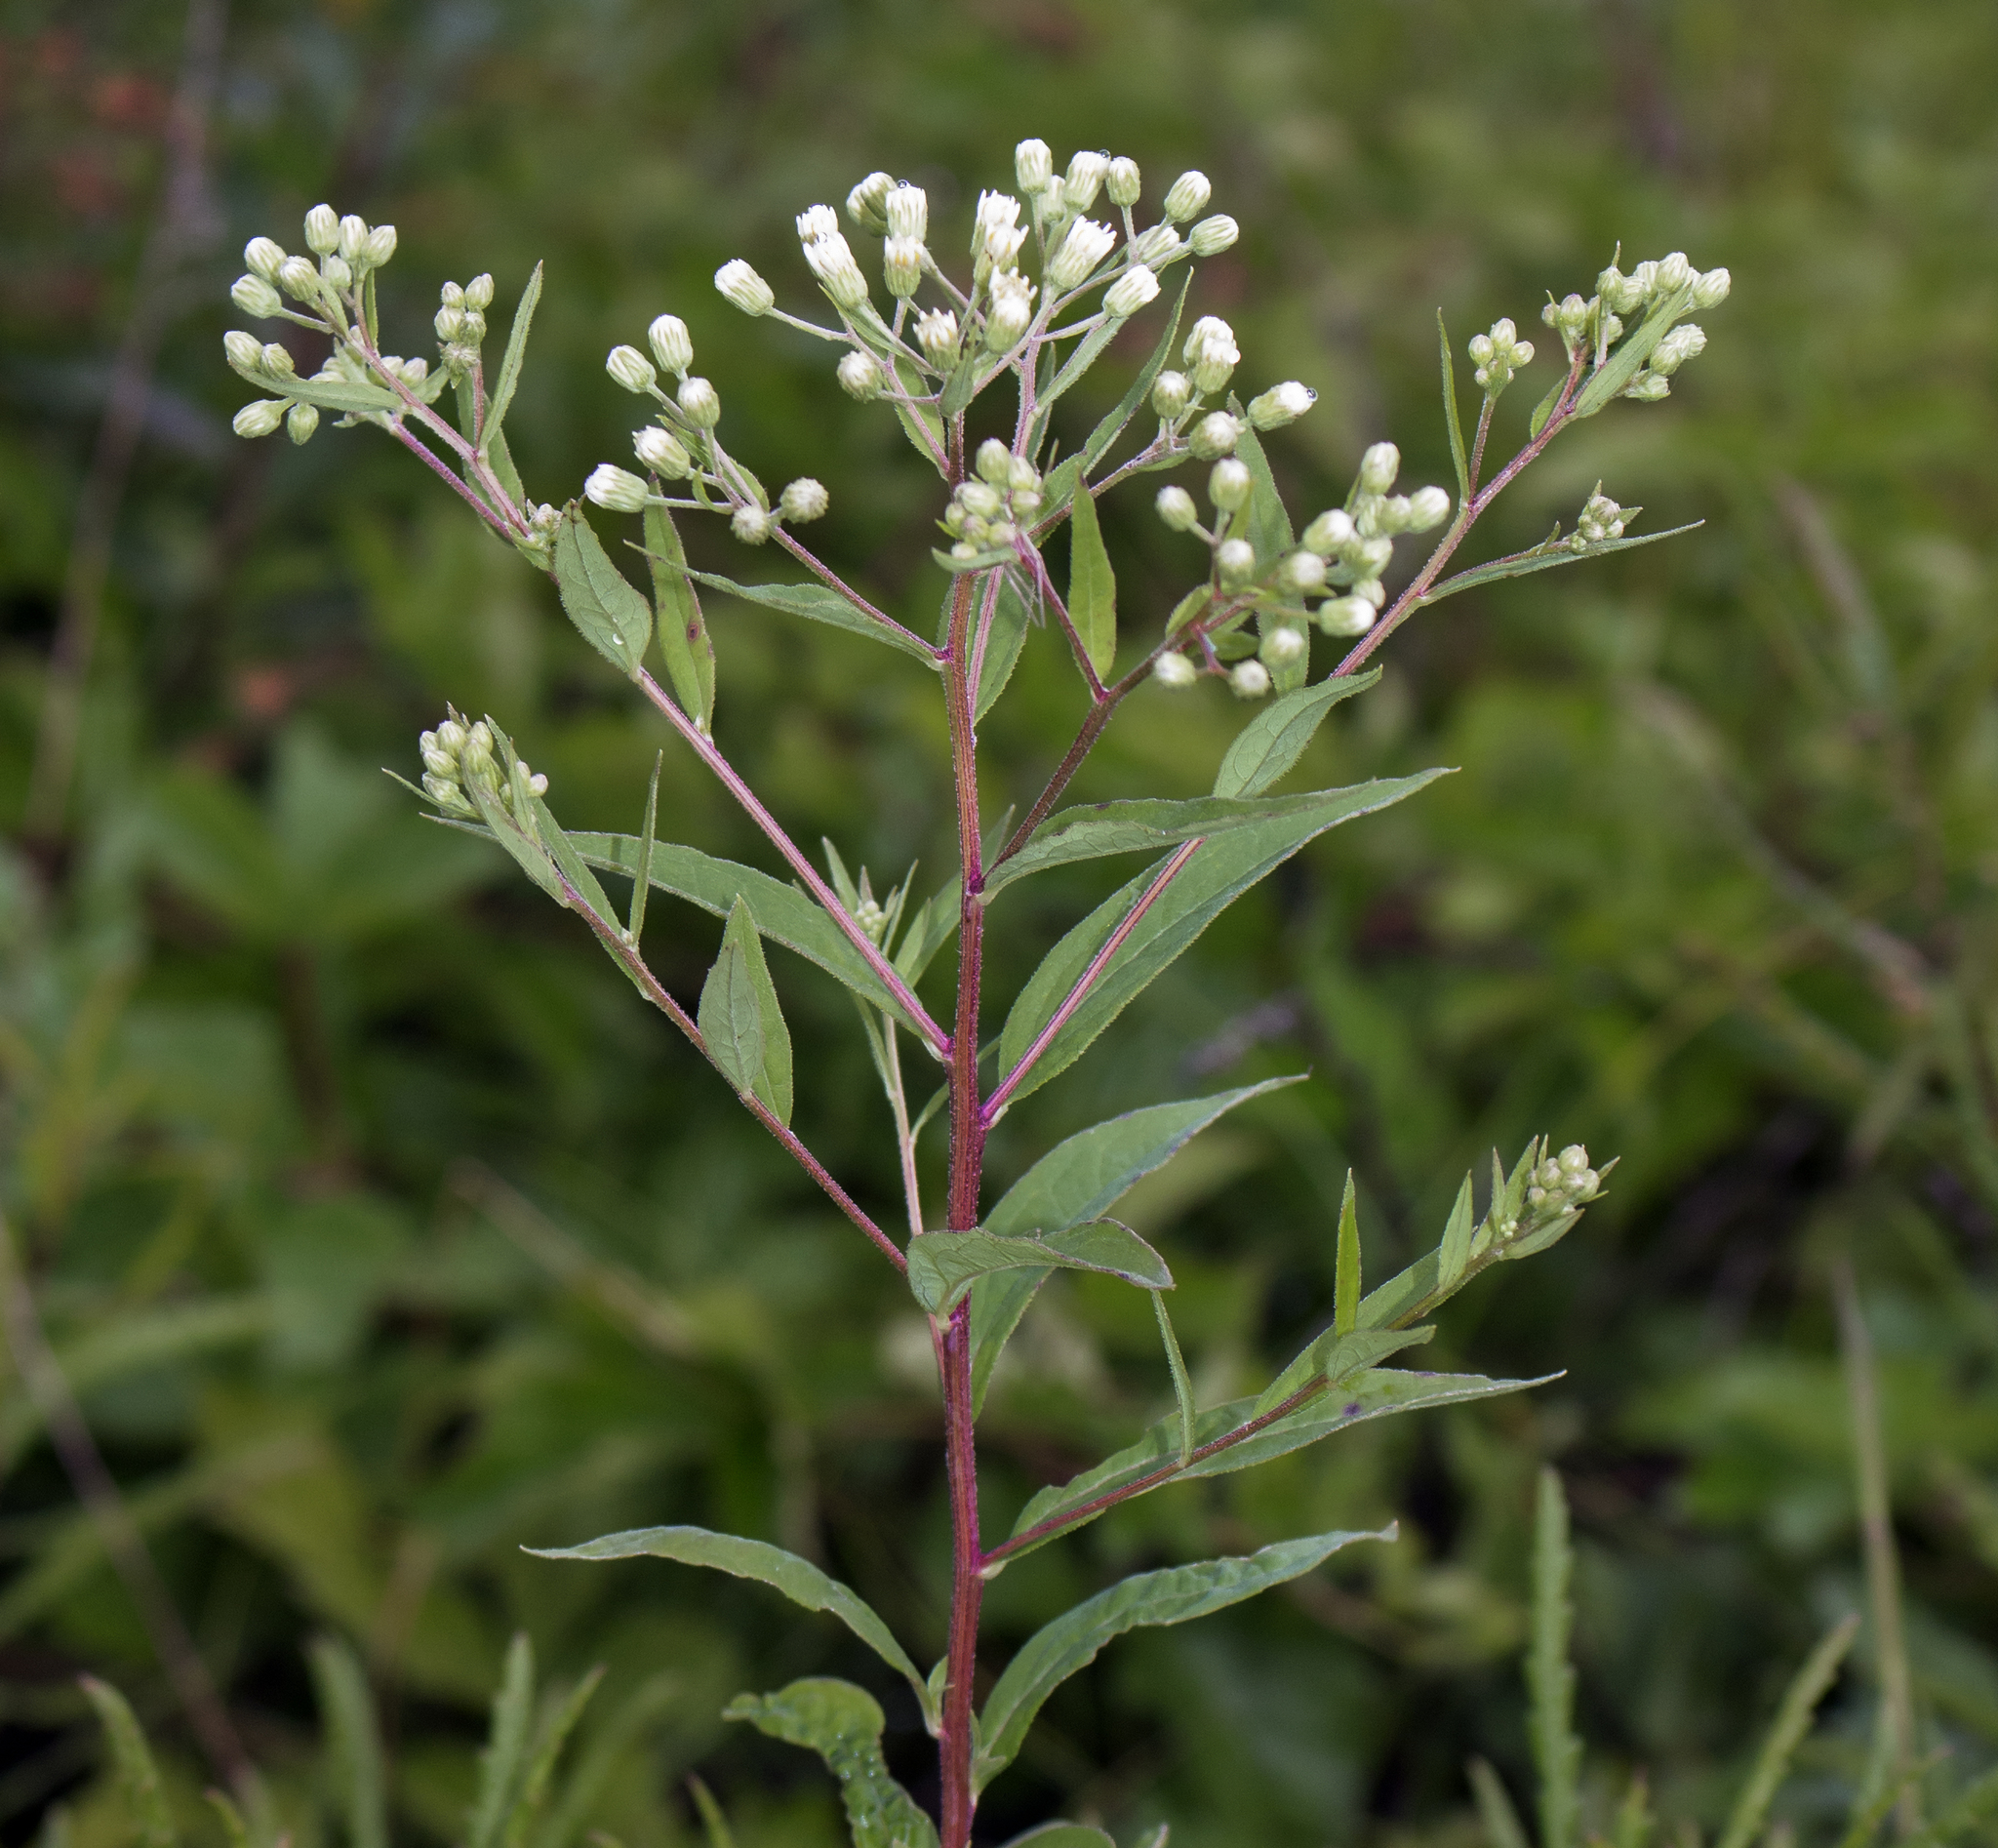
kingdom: Plantae
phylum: Tracheophyta
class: Magnoliopsida
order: Asterales
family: Asteraceae
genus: Doellingeria
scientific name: Doellingeria umbellata
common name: Flat-top white aster
